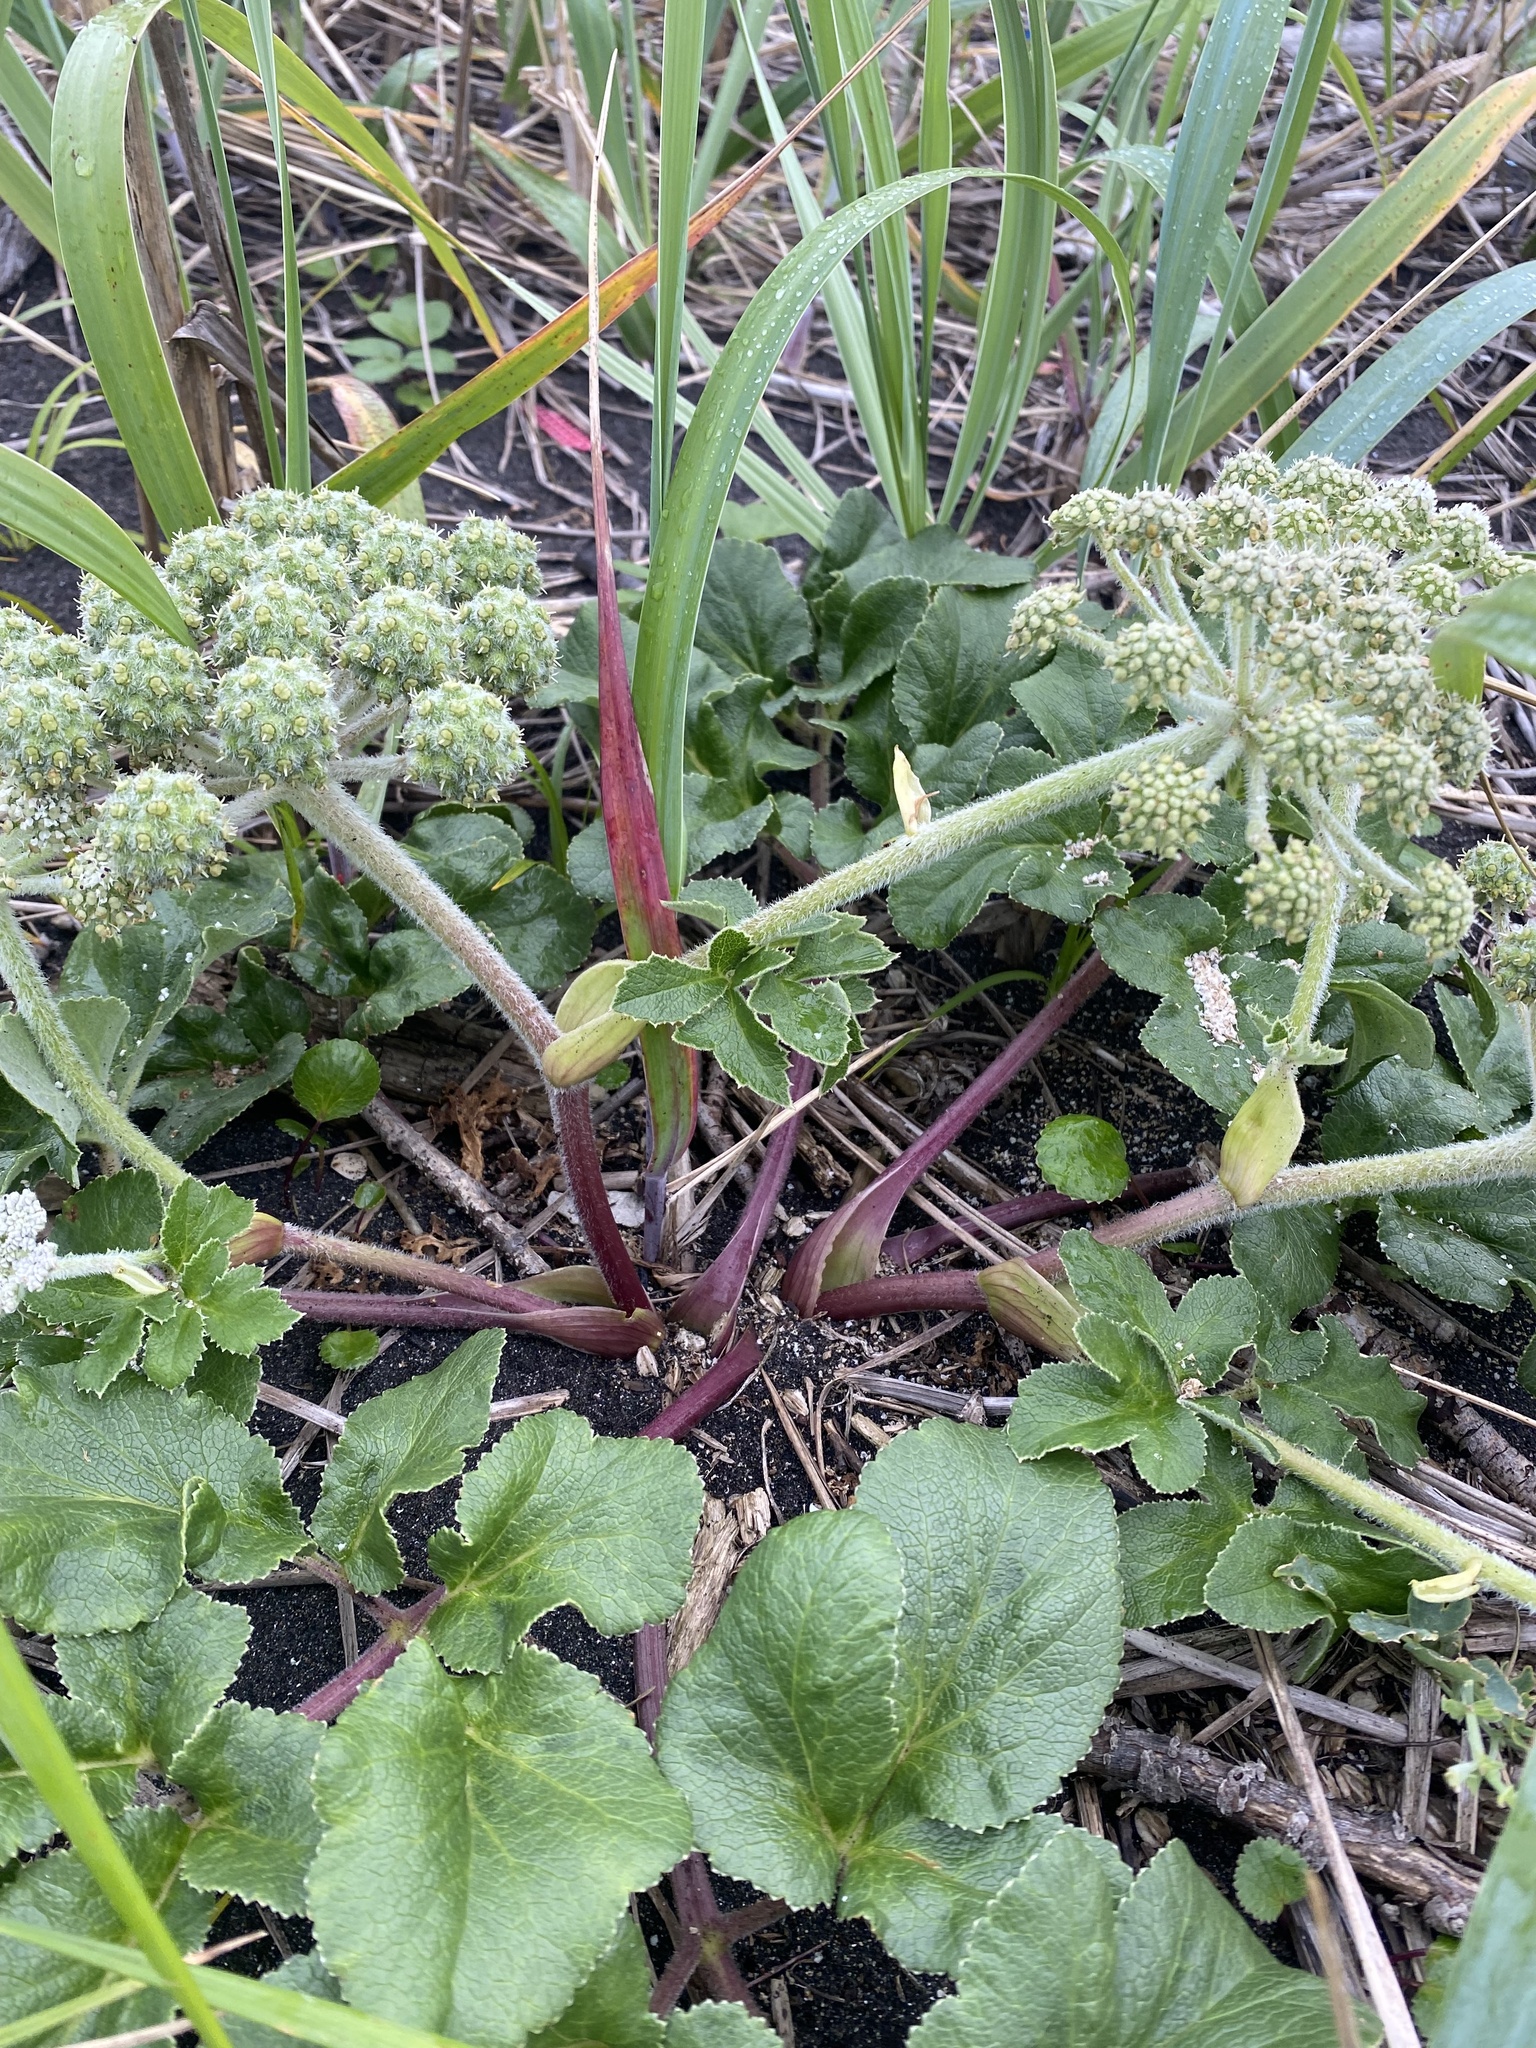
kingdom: Plantae
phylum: Tracheophyta
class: Magnoliopsida
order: Apiales
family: Apiaceae
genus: Glehnia
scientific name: Glehnia littoralis
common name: Beach silvertop
